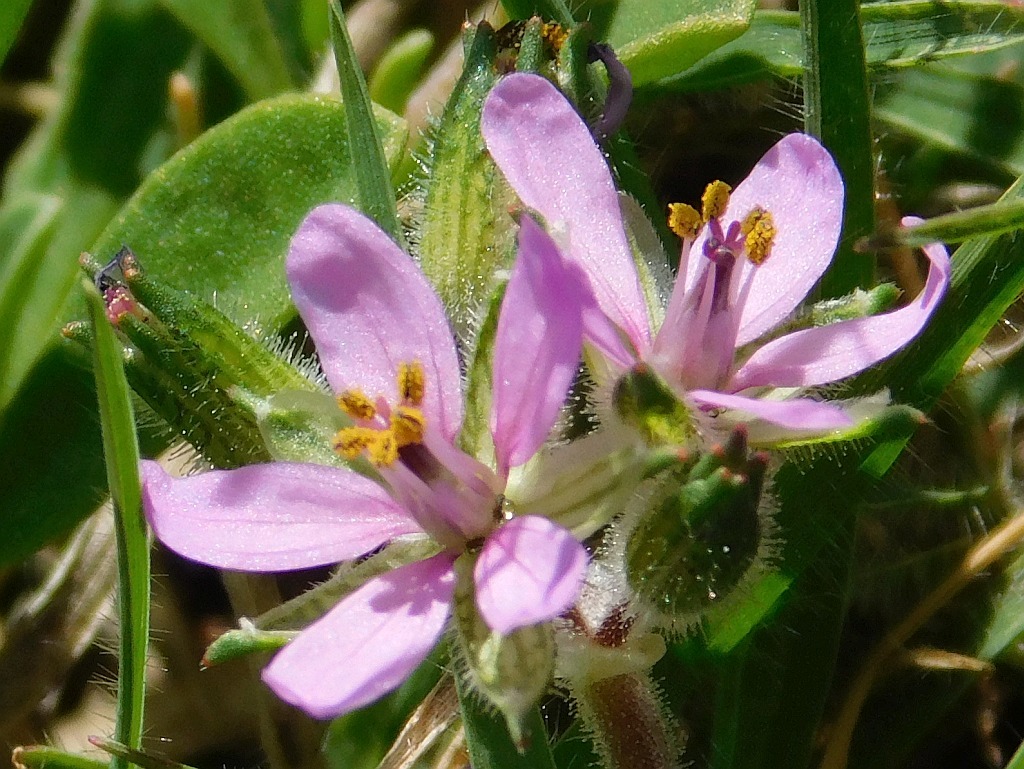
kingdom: Plantae
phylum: Tracheophyta
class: Magnoliopsida
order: Geraniales
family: Geraniaceae
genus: Erodium
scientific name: Erodium moschatum
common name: Musk stork's-bill
